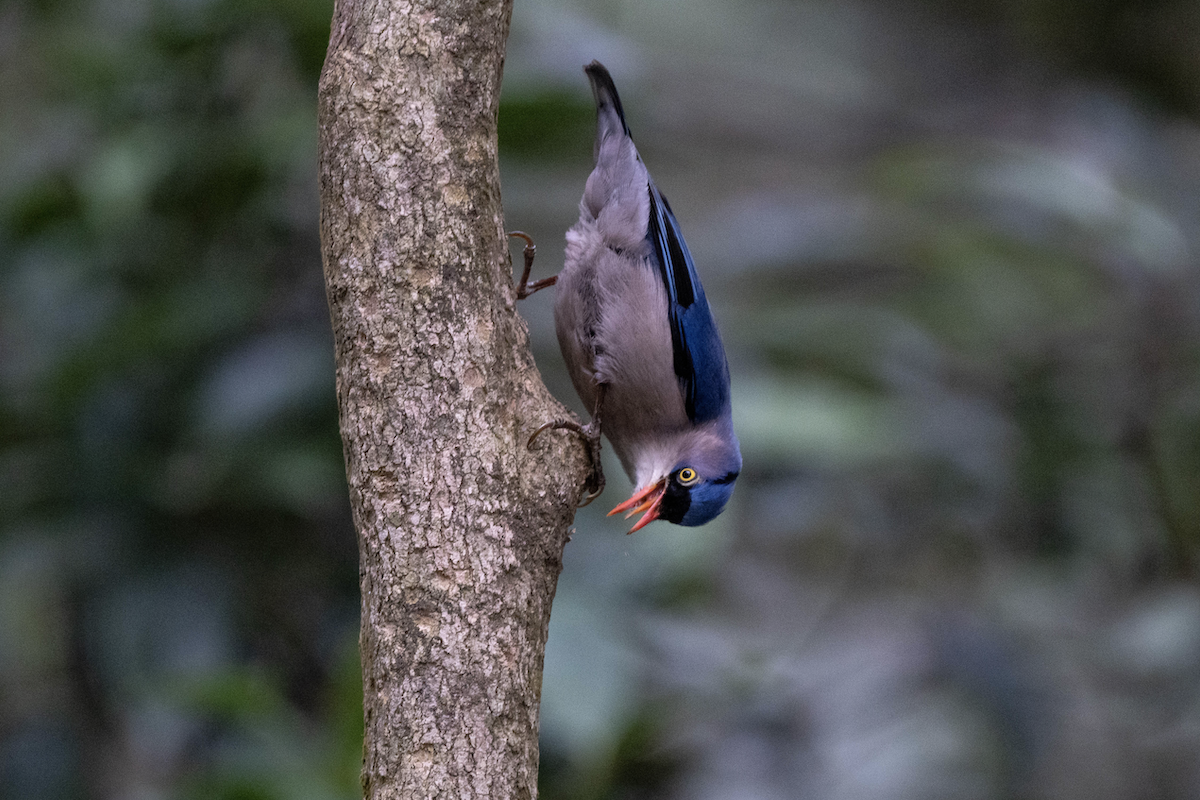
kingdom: Animalia
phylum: Chordata
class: Aves
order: Passeriformes
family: Sittidae
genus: Sitta
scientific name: Sitta frontalis
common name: Velvet-fronted nuthatch
